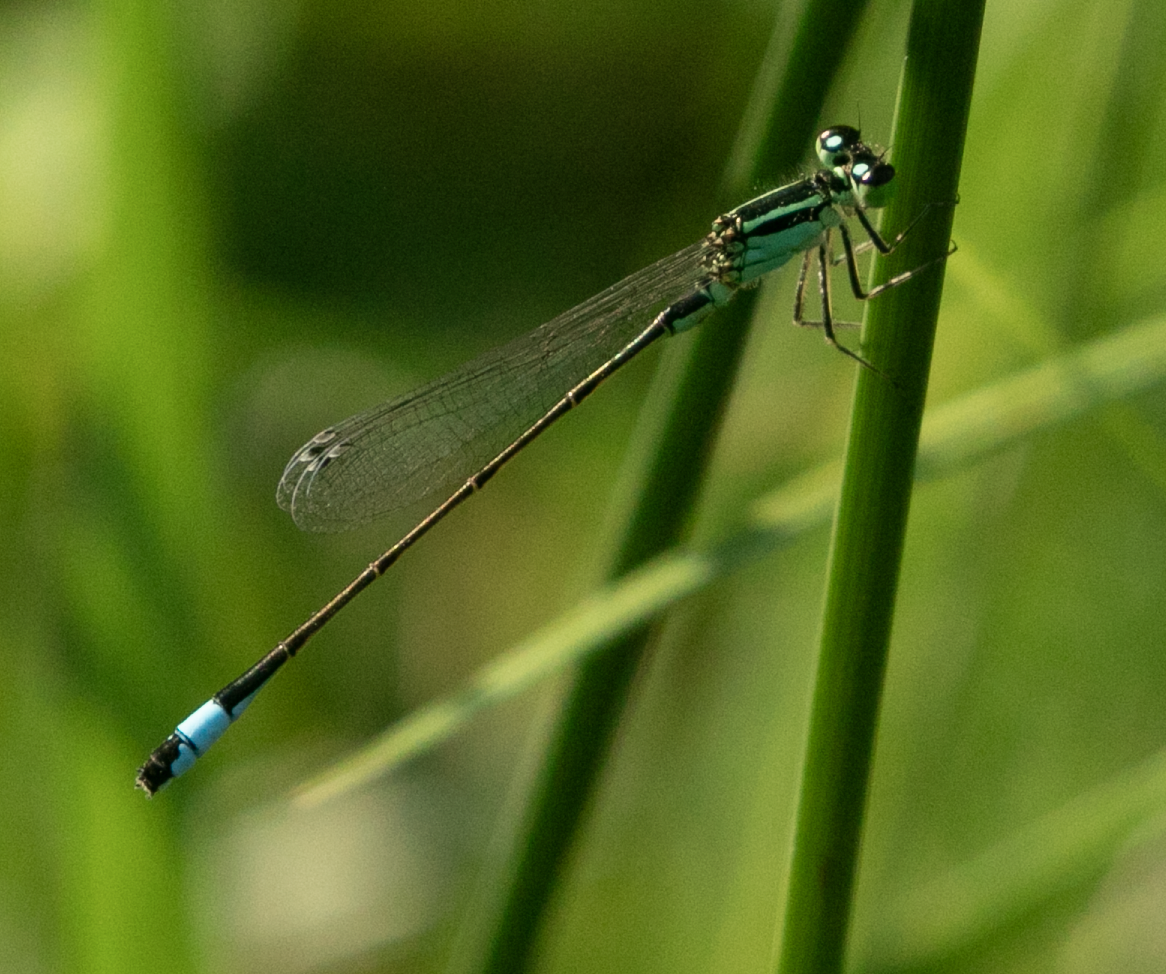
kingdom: Animalia
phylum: Arthropoda
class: Insecta
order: Odonata
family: Coenagrionidae
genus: Ischnura
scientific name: Ischnura elegans
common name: Blue-tailed damselfly
